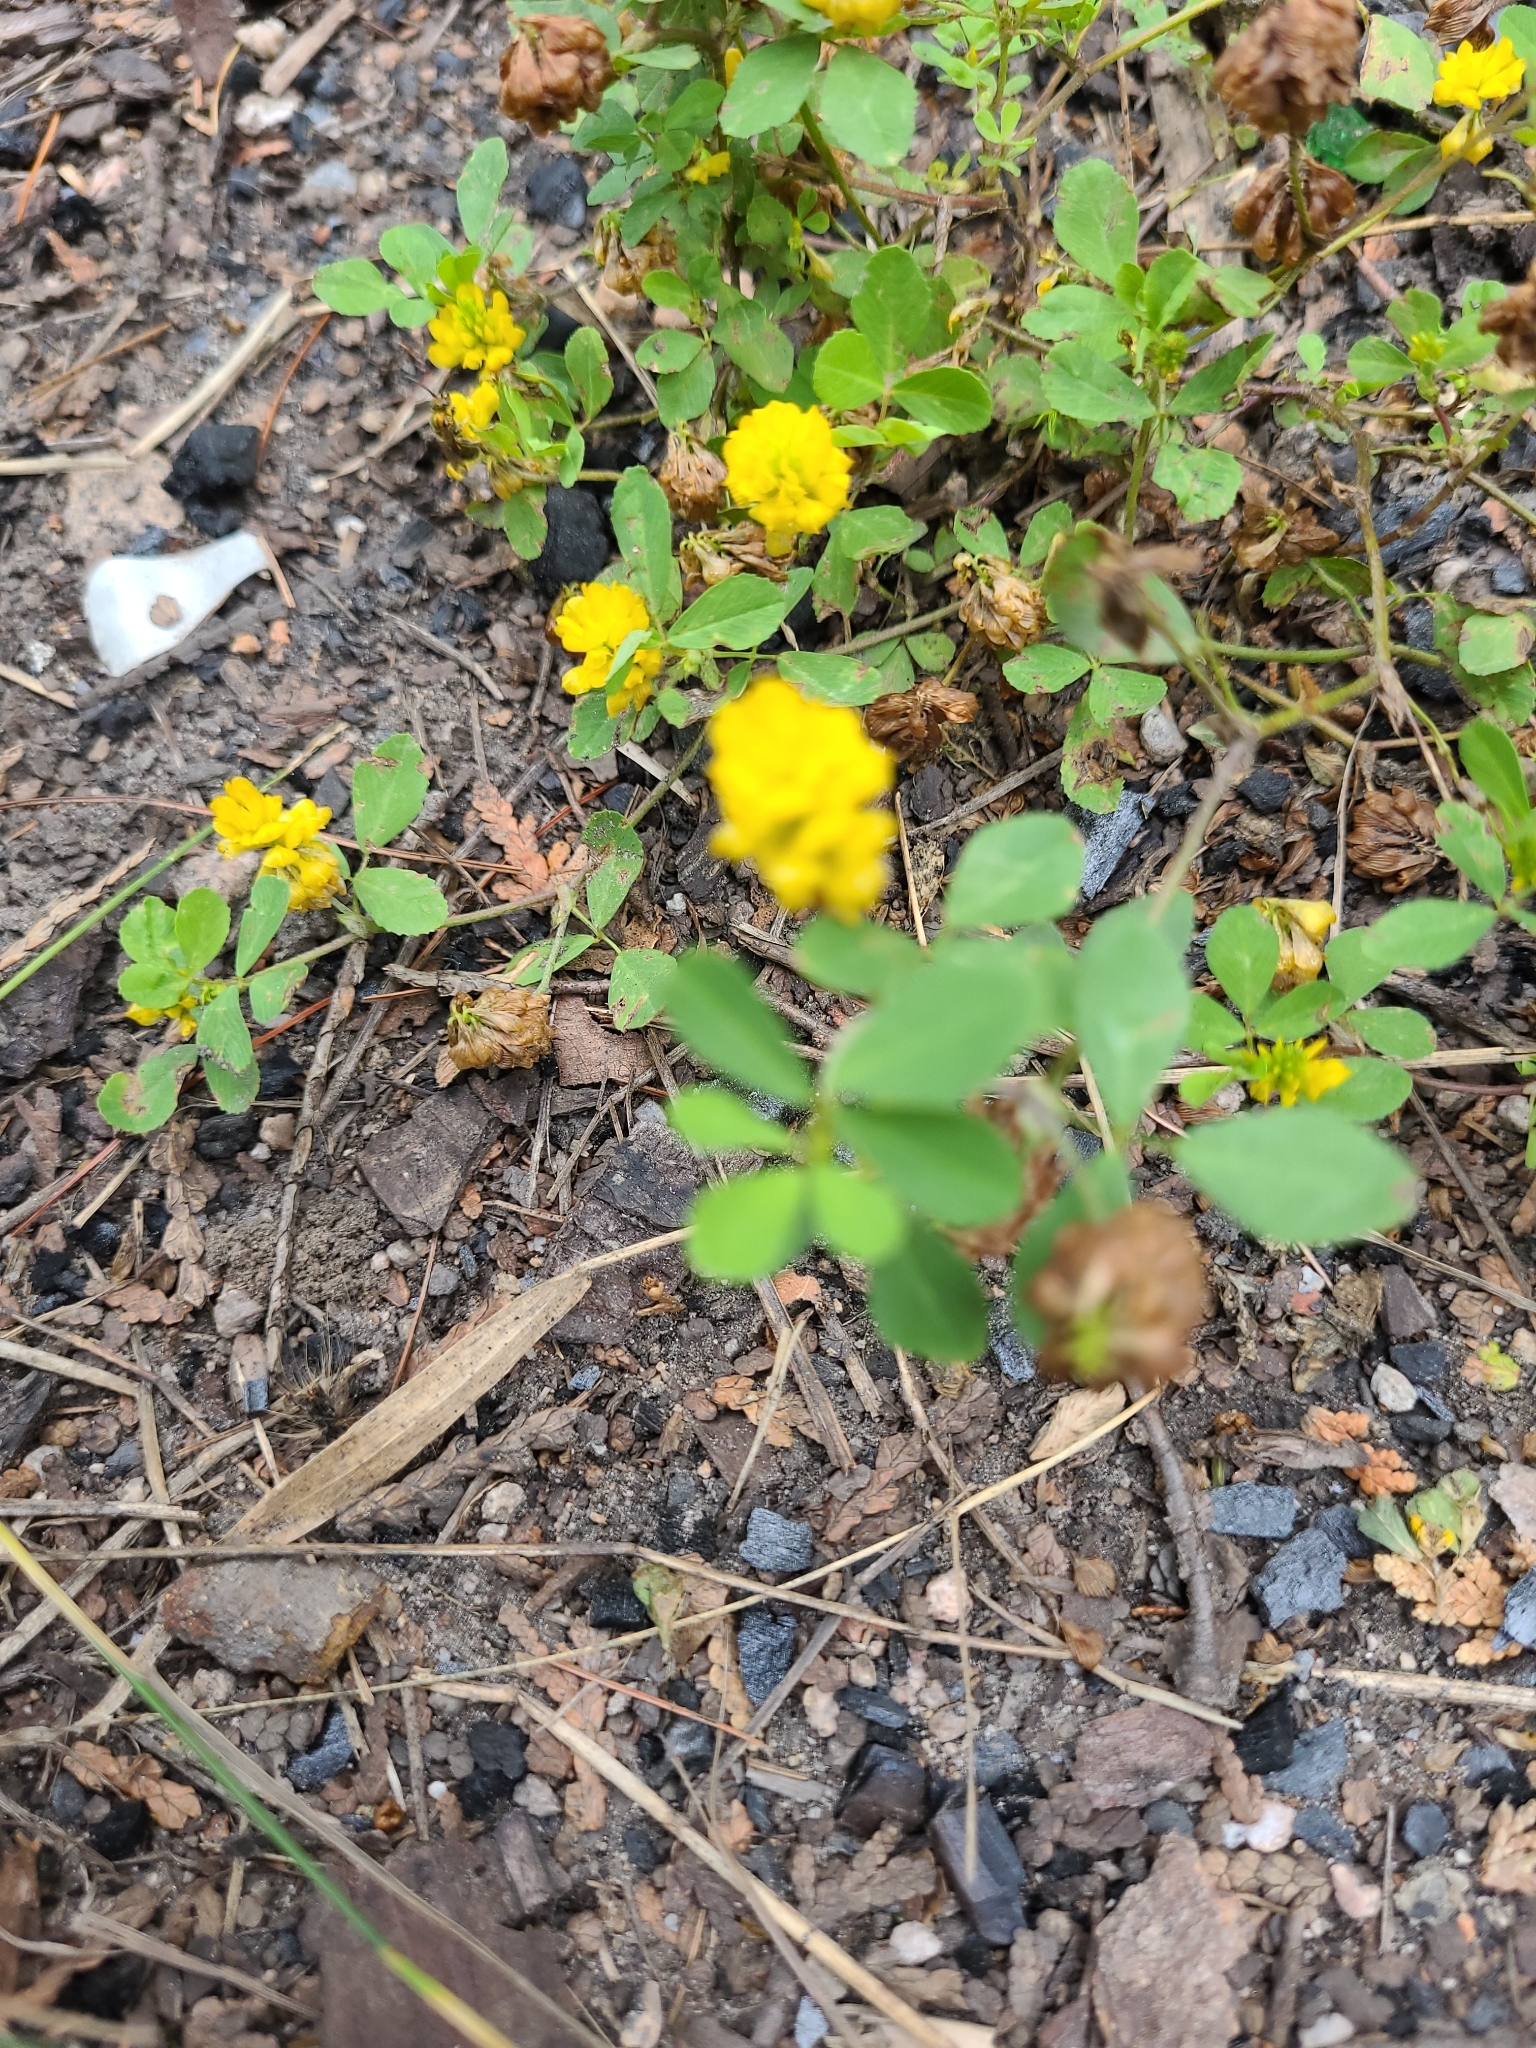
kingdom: Plantae
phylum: Tracheophyta
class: Magnoliopsida
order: Fabales
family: Fabaceae
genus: Trifolium
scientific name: Trifolium campestre
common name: Field clover
